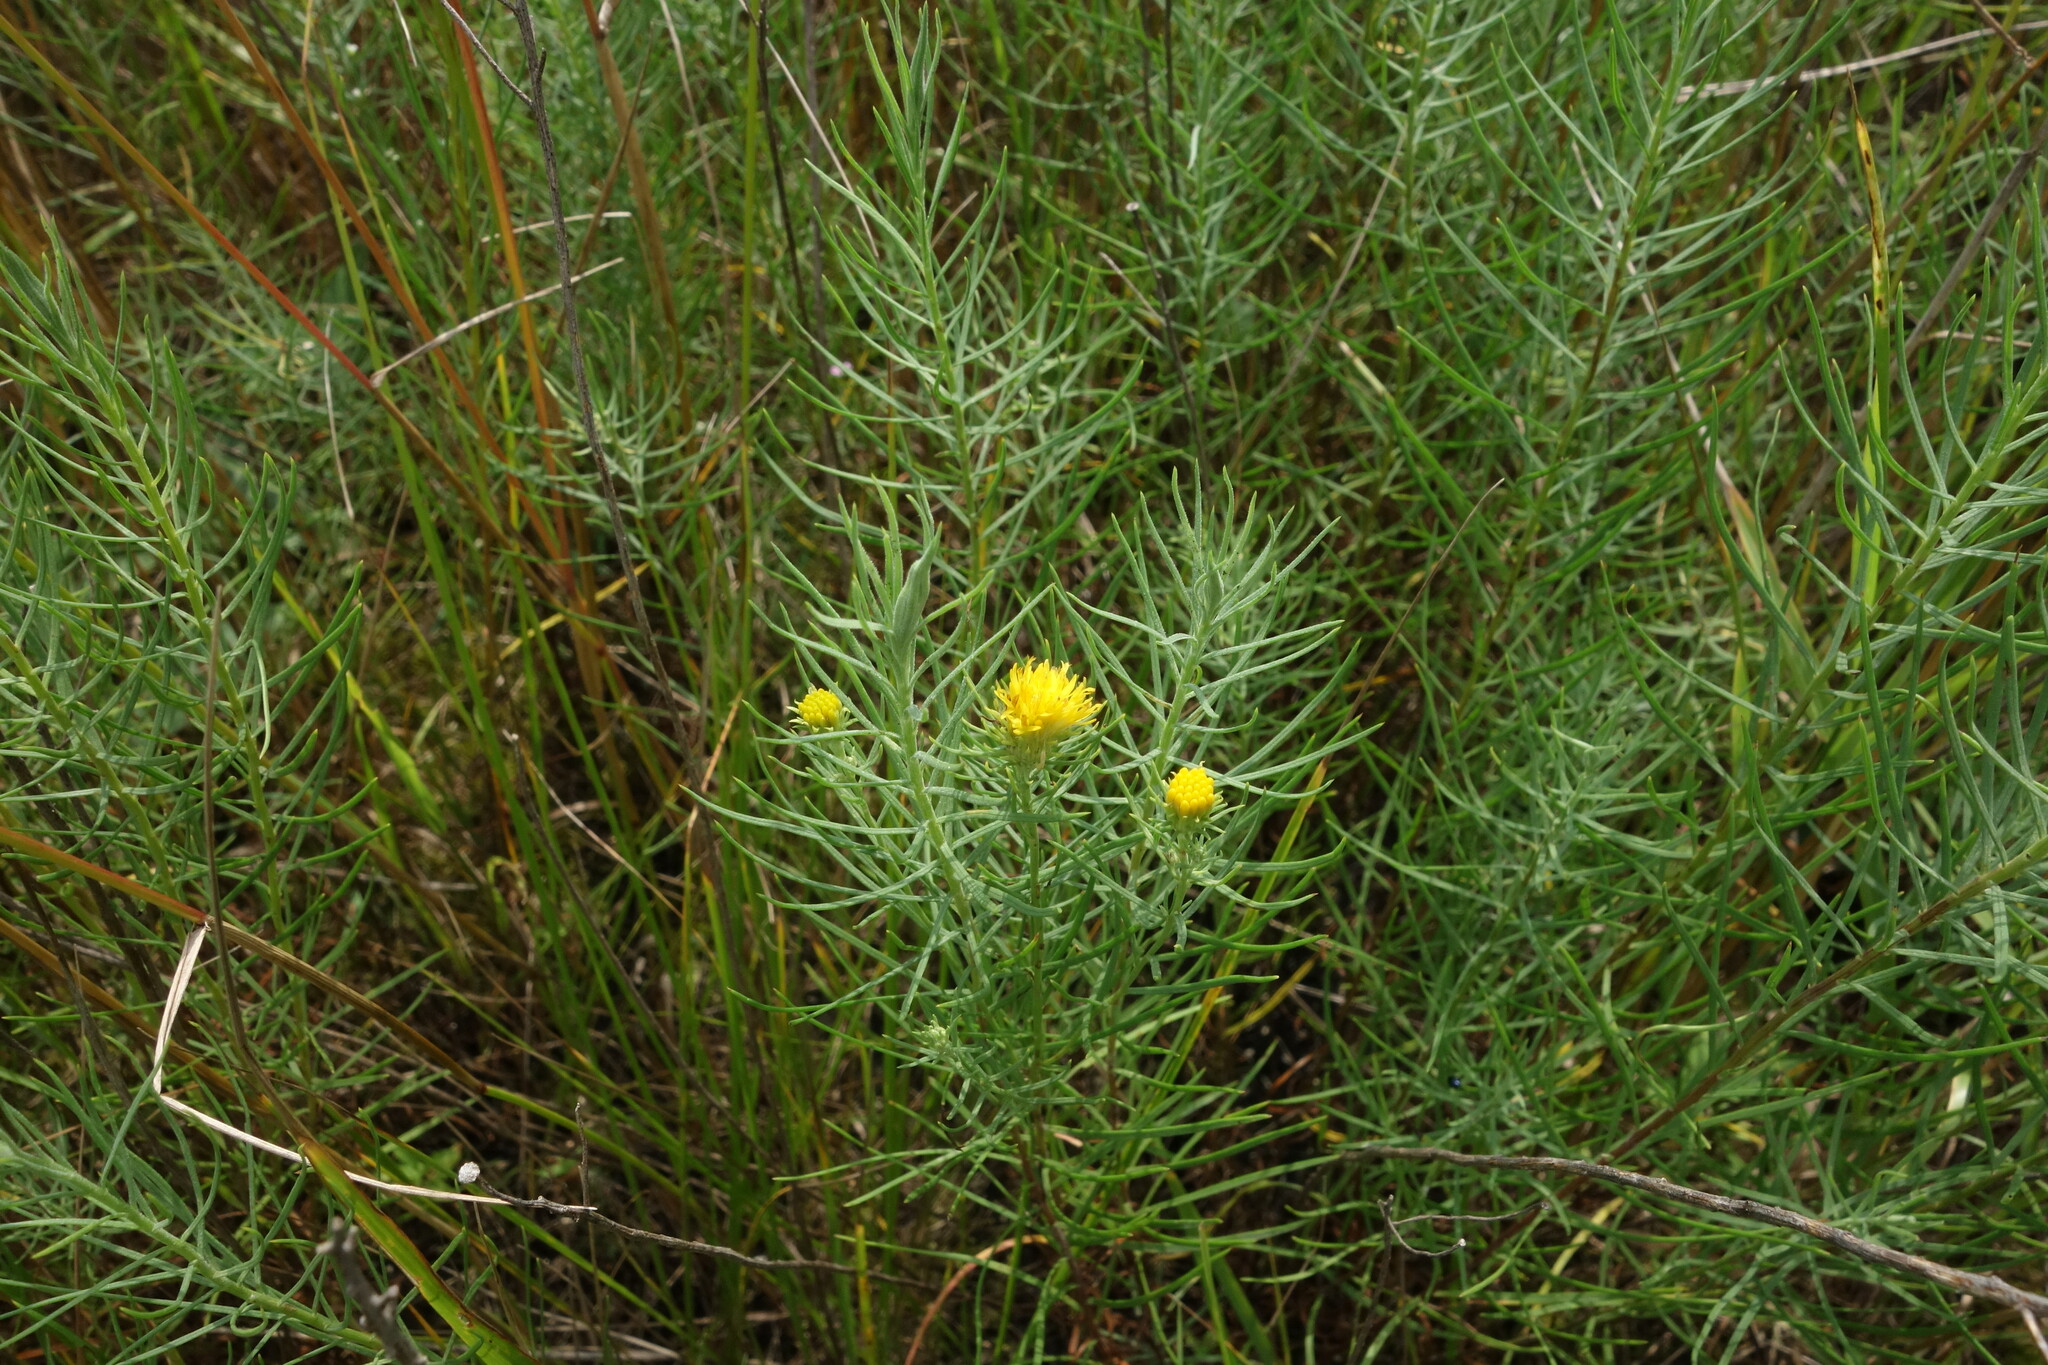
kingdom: Plantae
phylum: Tracheophyta
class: Magnoliopsida
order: Asterales
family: Asteraceae
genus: Galatella
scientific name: Galatella linosyris
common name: Goldilocks aster
